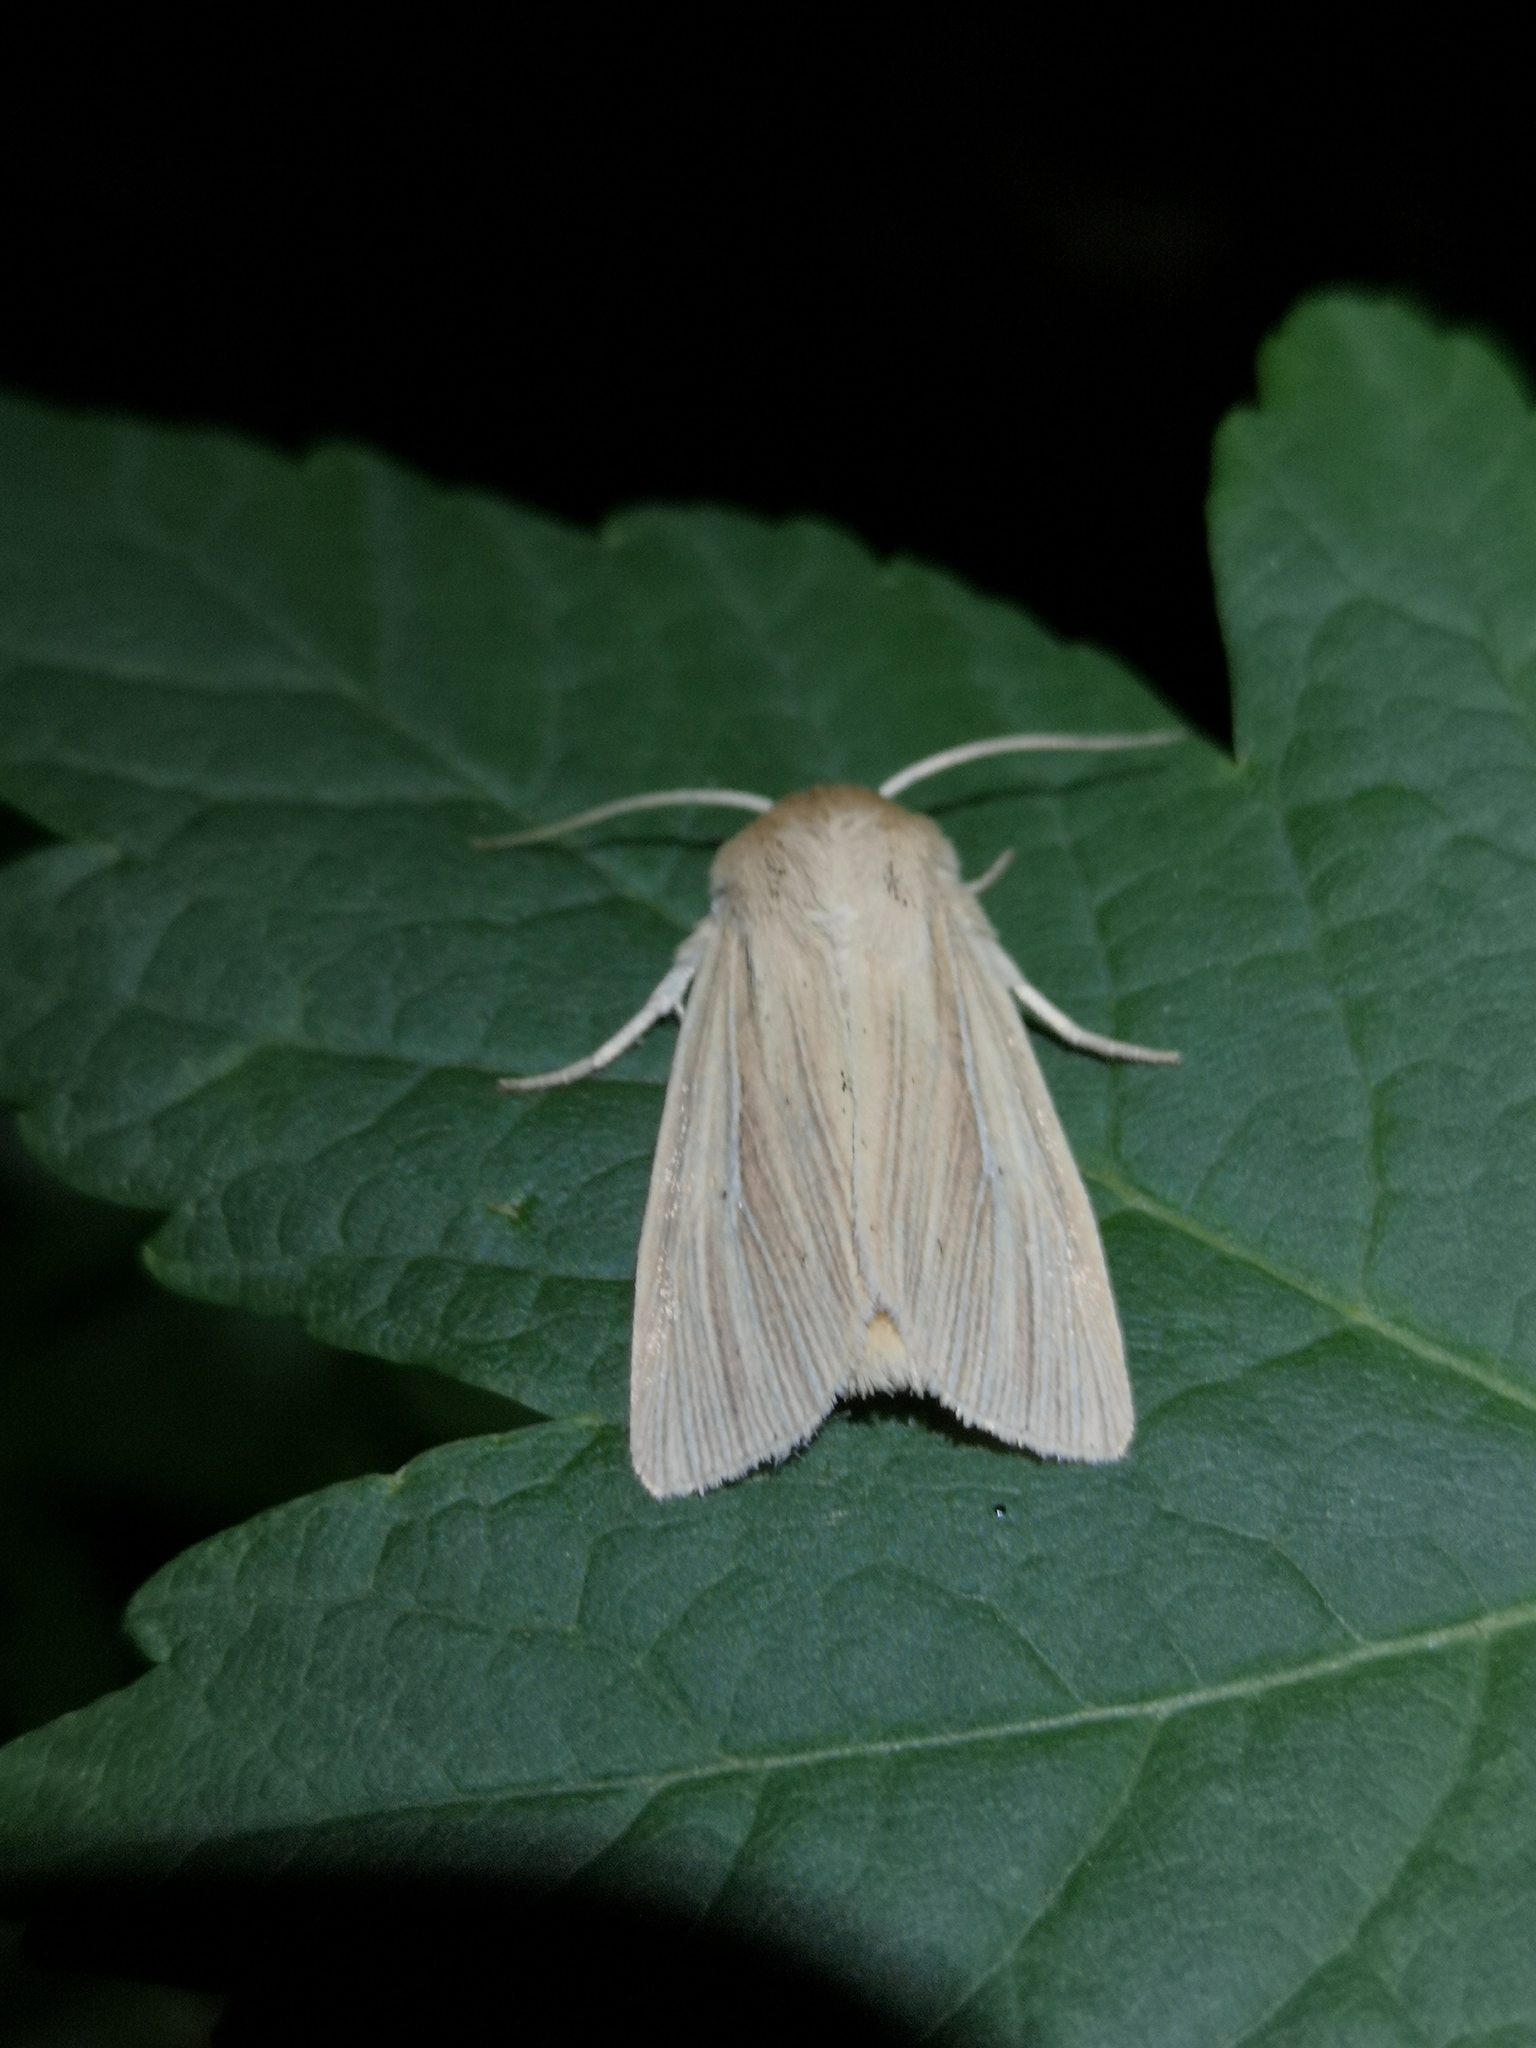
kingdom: Animalia
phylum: Arthropoda
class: Insecta
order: Lepidoptera
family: Noctuidae
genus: Mythimna
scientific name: Mythimna impura
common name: Smoky wainscot
